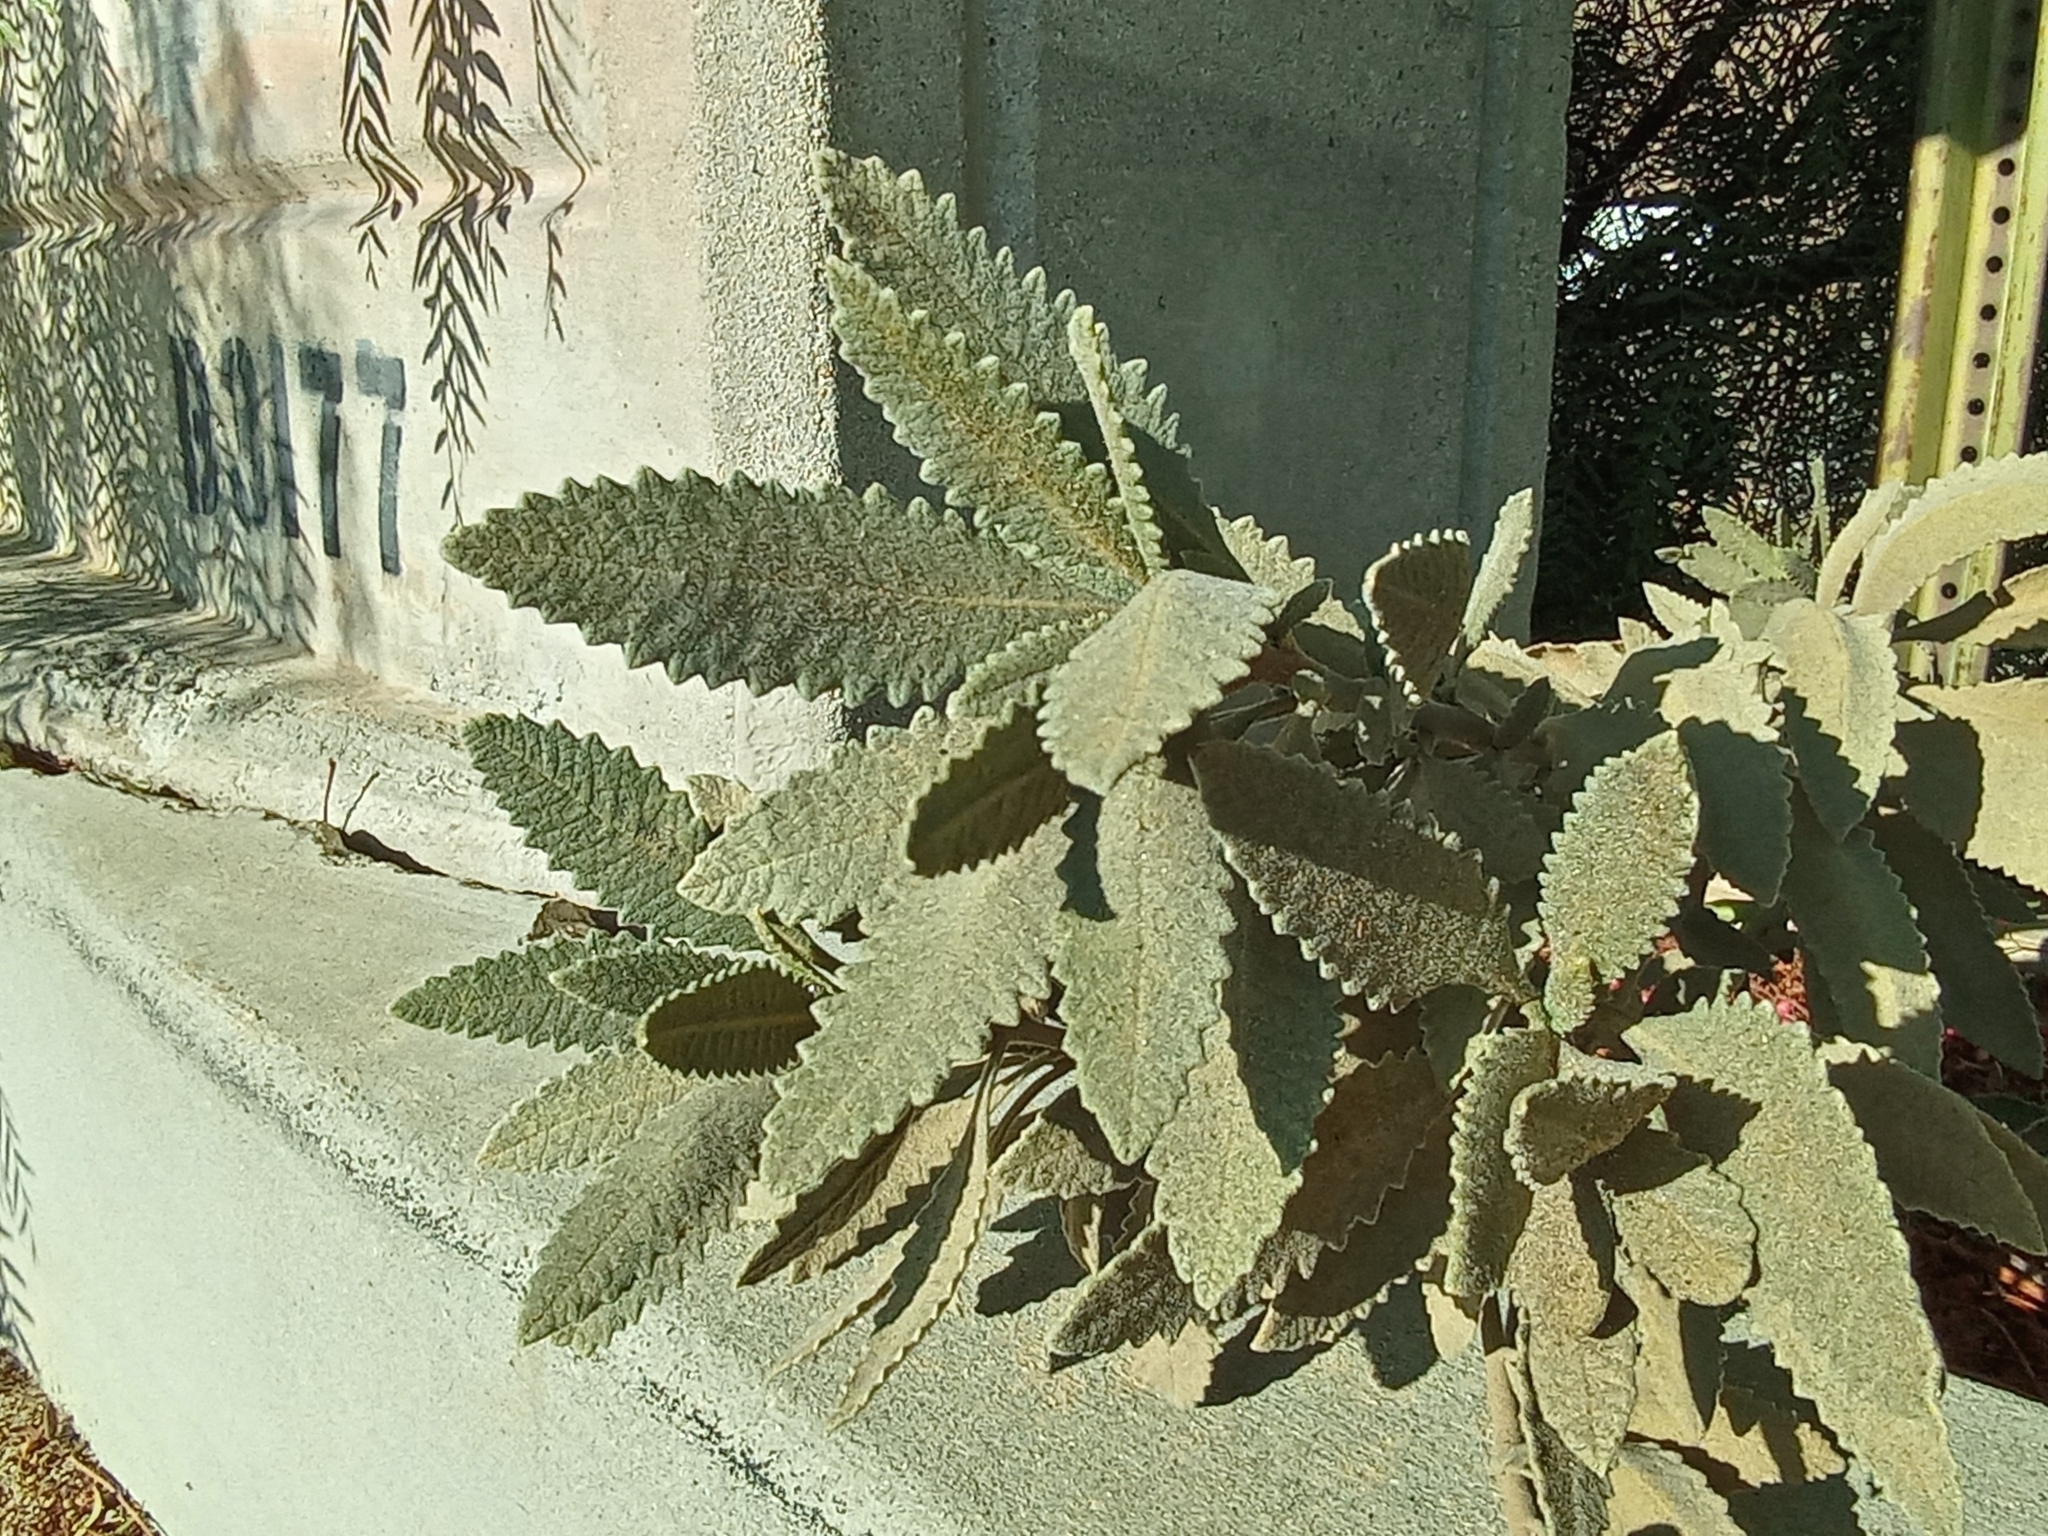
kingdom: Plantae
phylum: Tracheophyta
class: Magnoliopsida
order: Boraginales
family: Namaceae
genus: Eriodictyon
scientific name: Eriodictyon crassifolium
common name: Thick-leaf yerba-santa
